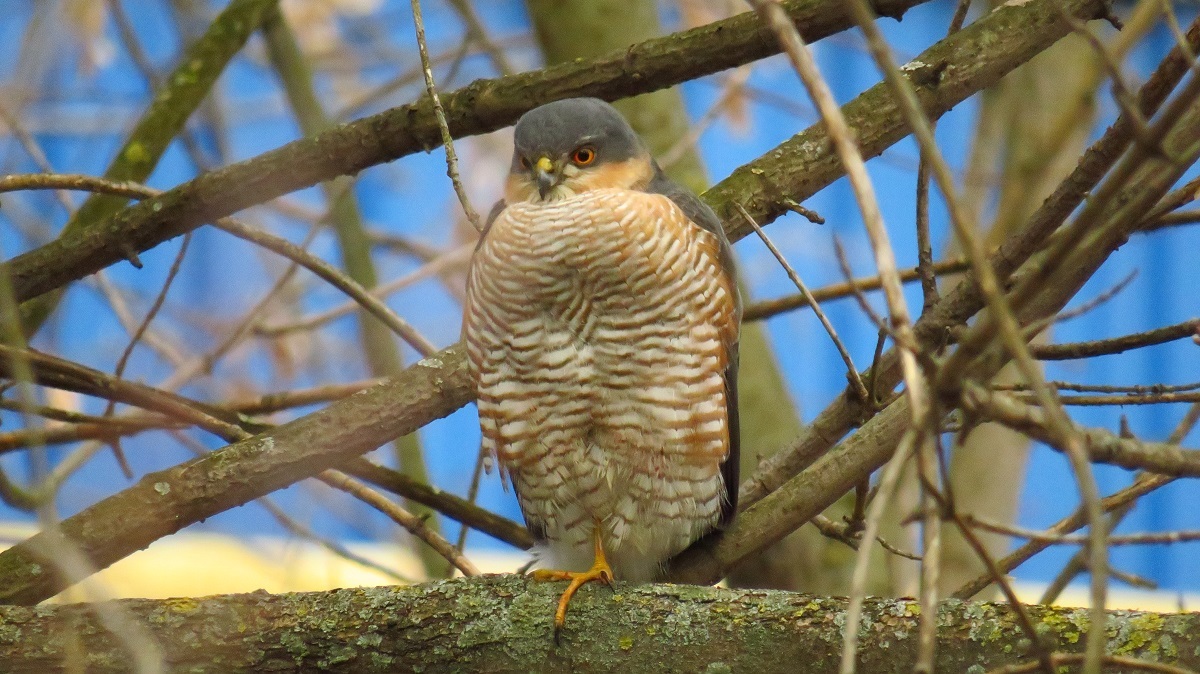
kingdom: Animalia
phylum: Chordata
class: Aves
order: Accipitriformes
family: Accipitridae
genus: Accipiter
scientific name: Accipiter nisus
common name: Eurasian sparrowhawk
